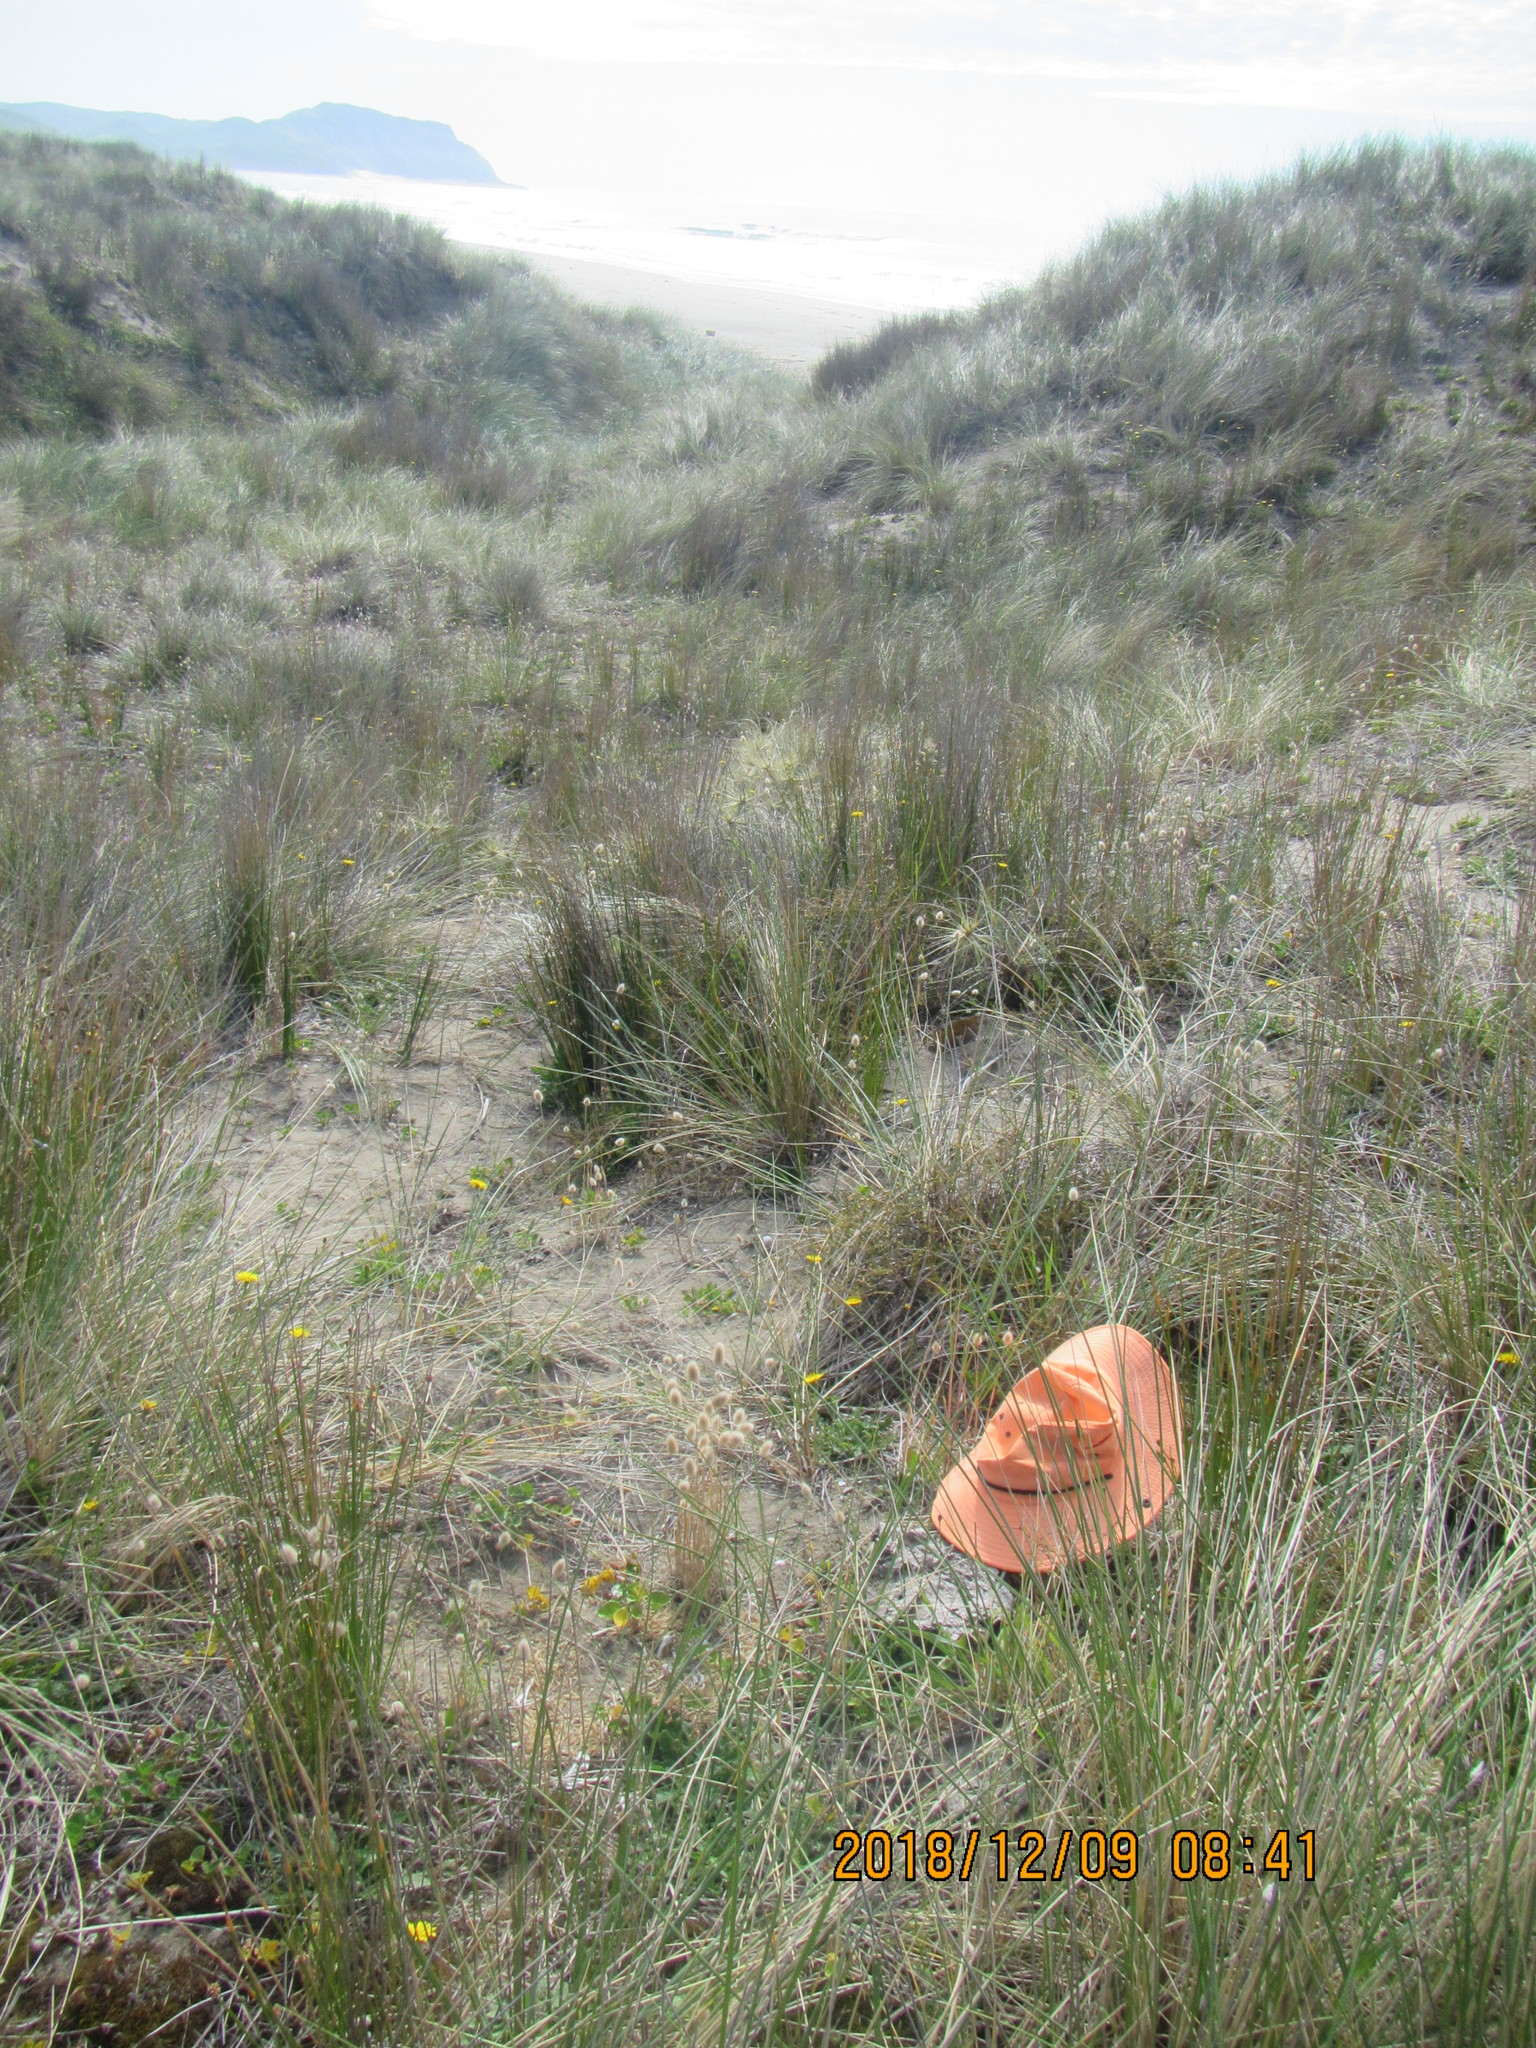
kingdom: Animalia
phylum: Arthropoda
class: Arachnida
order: Araneae
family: Theridiidae
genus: Latrodectus
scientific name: Latrodectus katipo
